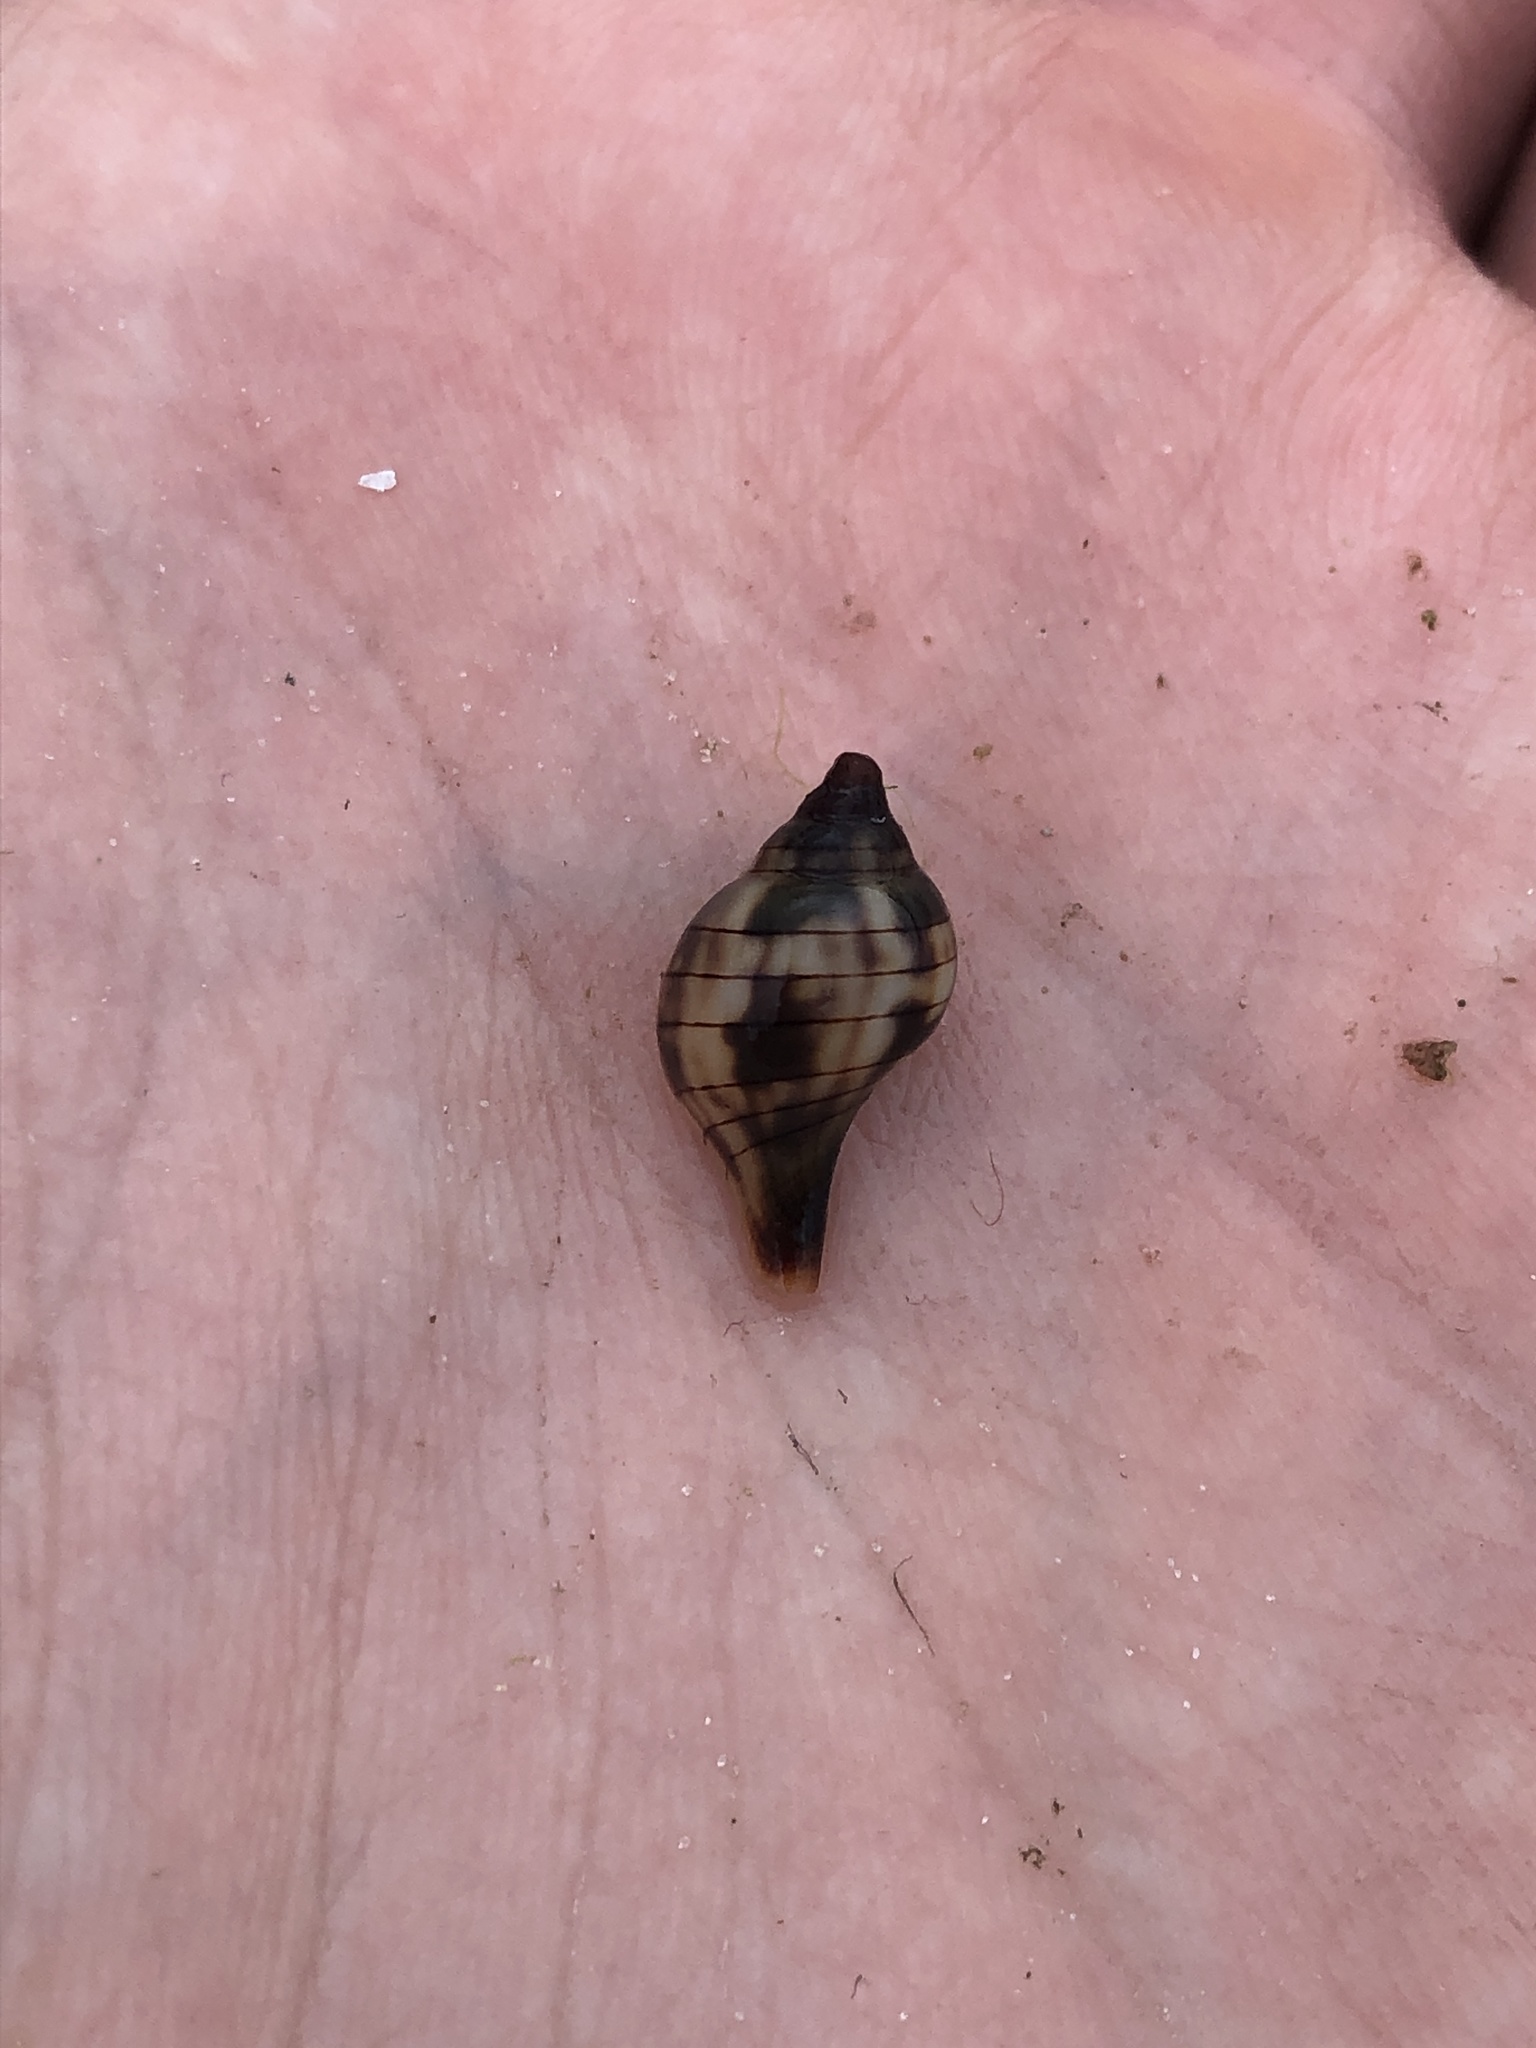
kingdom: Animalia
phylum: Mollusca
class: Gastropoda
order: Neogastropoda
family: Fasciolariidae
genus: Cinctura
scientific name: Cinctura hunteria
